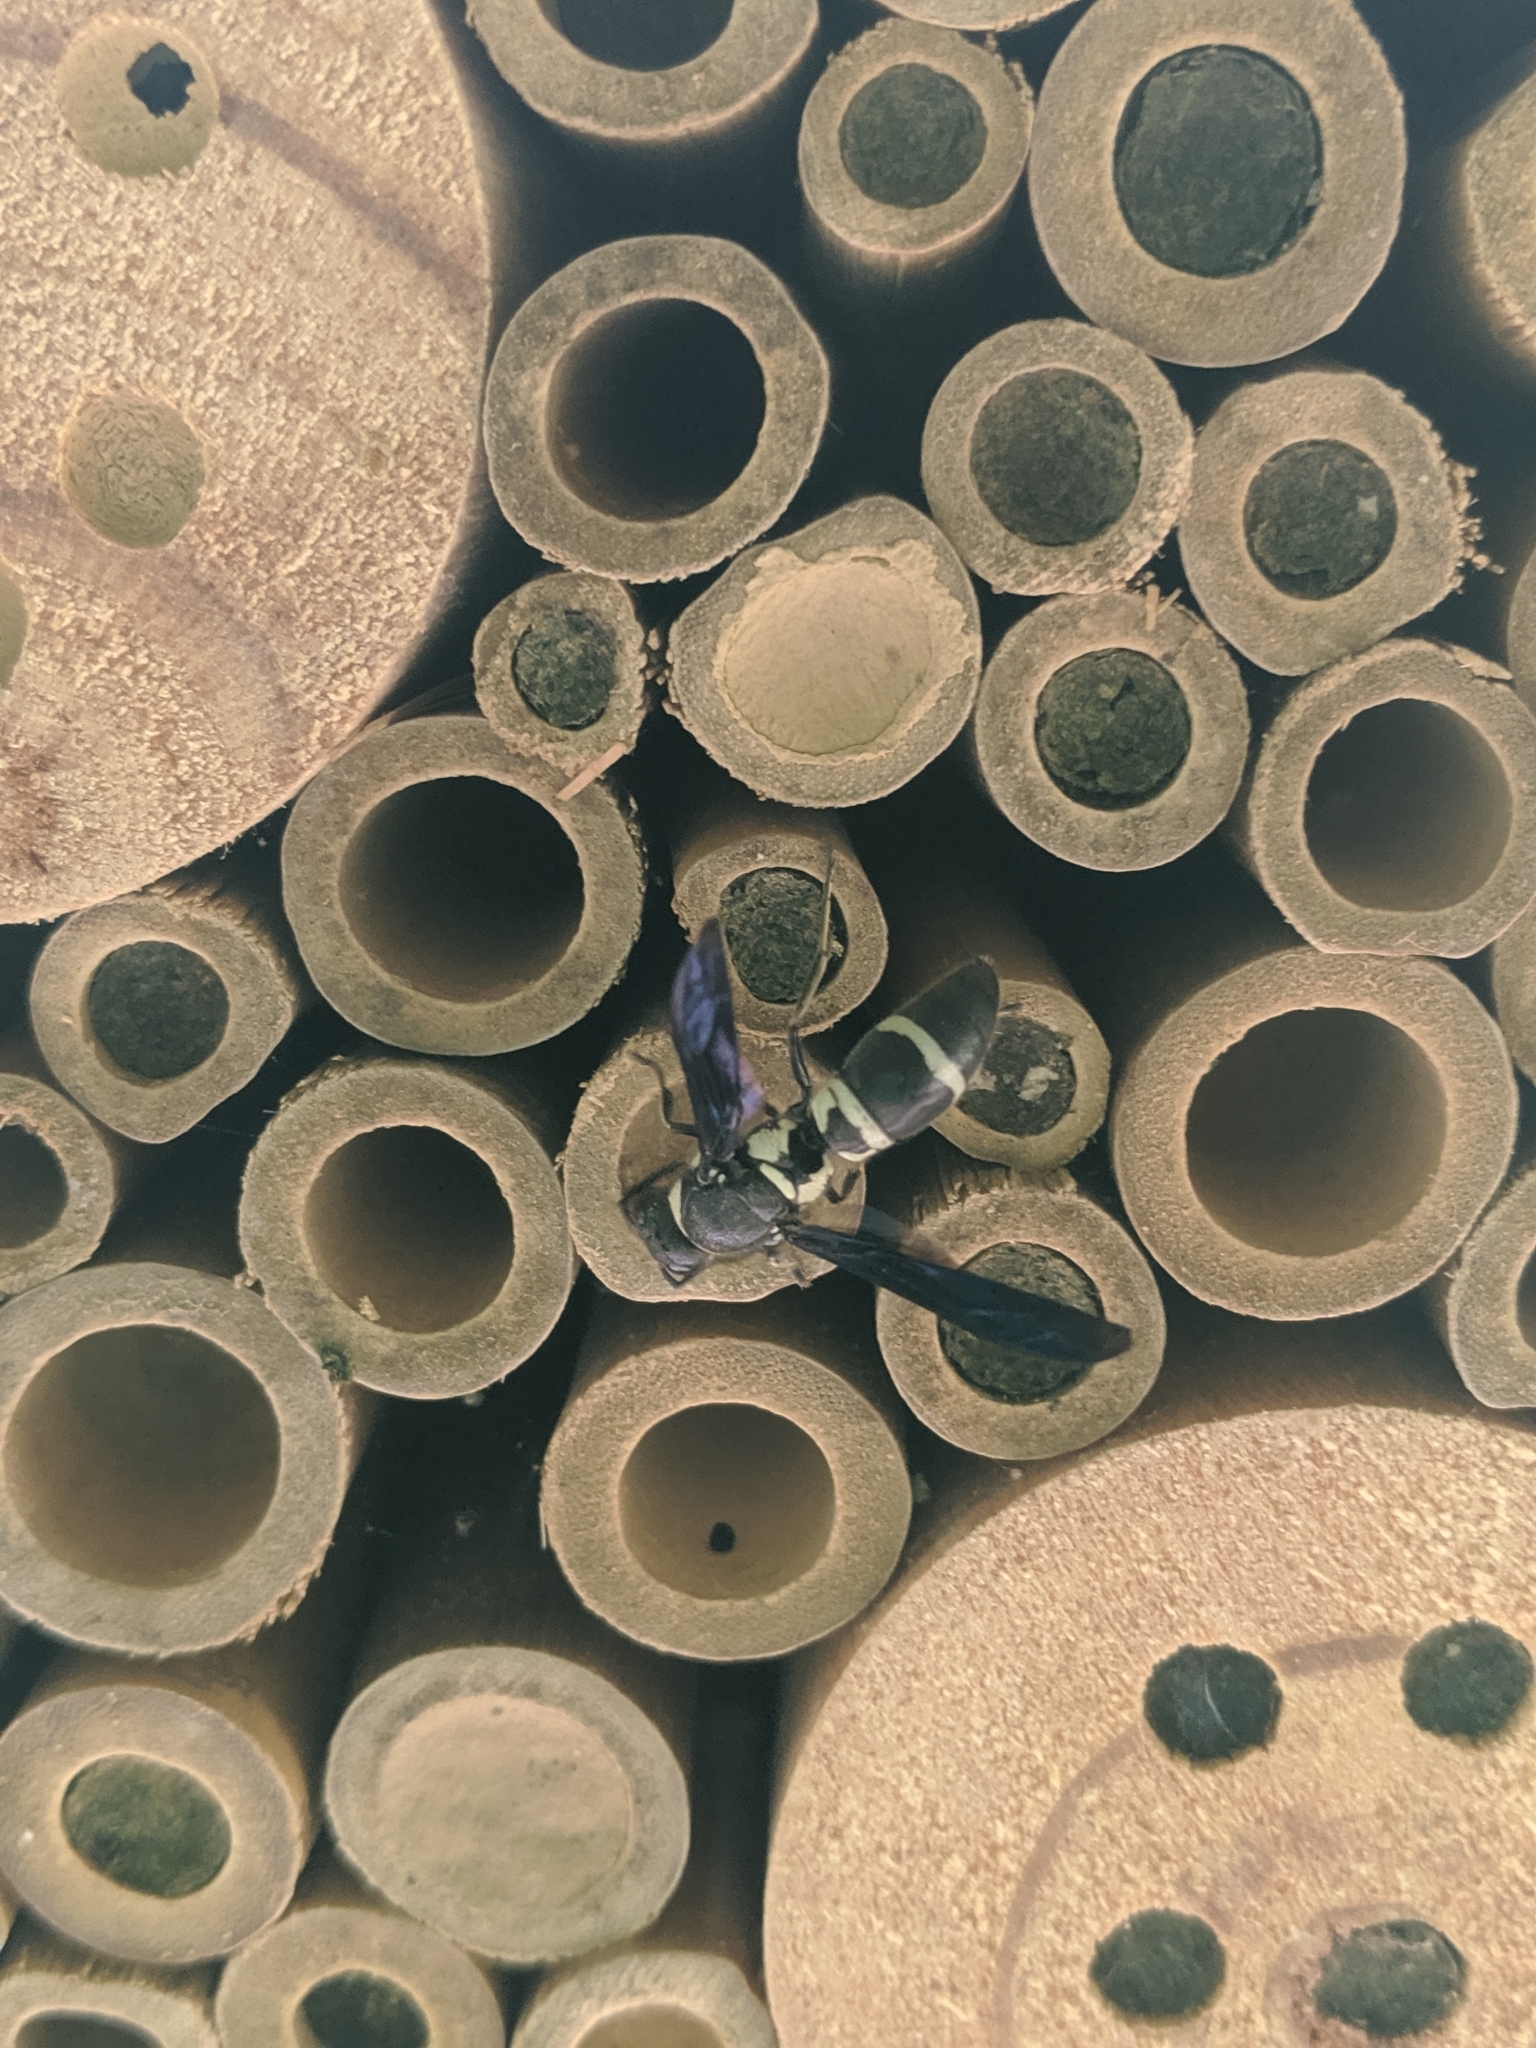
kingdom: Animalia
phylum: Arthropoda
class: Insecta
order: Hymenoptera
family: Eumenidae
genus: Pseudodynerus
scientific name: Pseudodynerus quadrisectus
